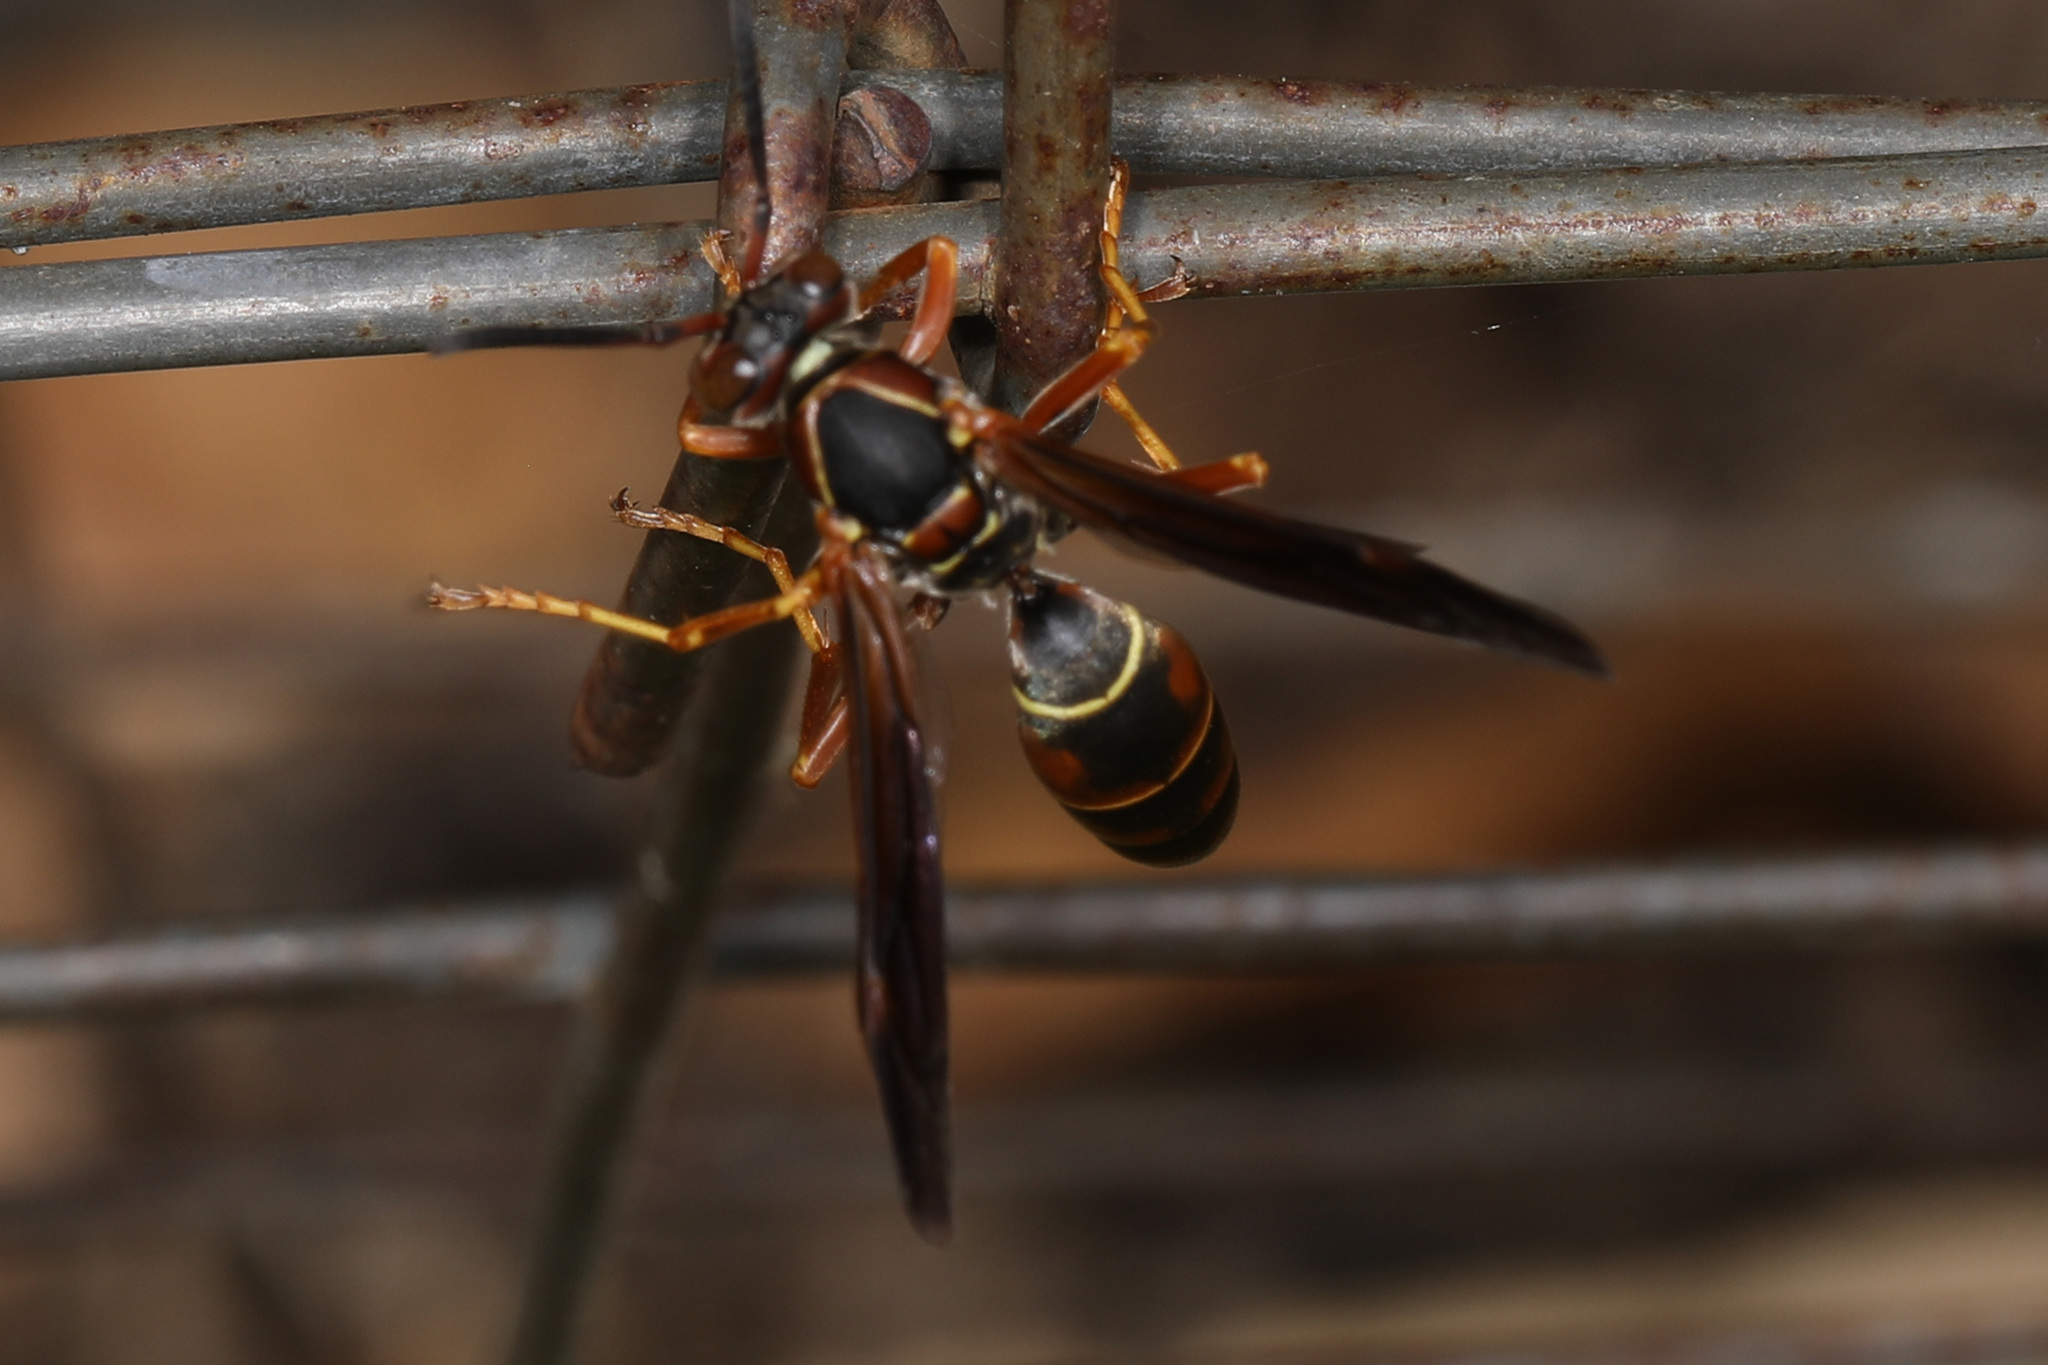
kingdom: Animalia
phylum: Arthropoda
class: Insecta
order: Hymenoptera
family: Eumenidae
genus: Polistes
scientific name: Polistes fuscatus
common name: Dark paper wasp
